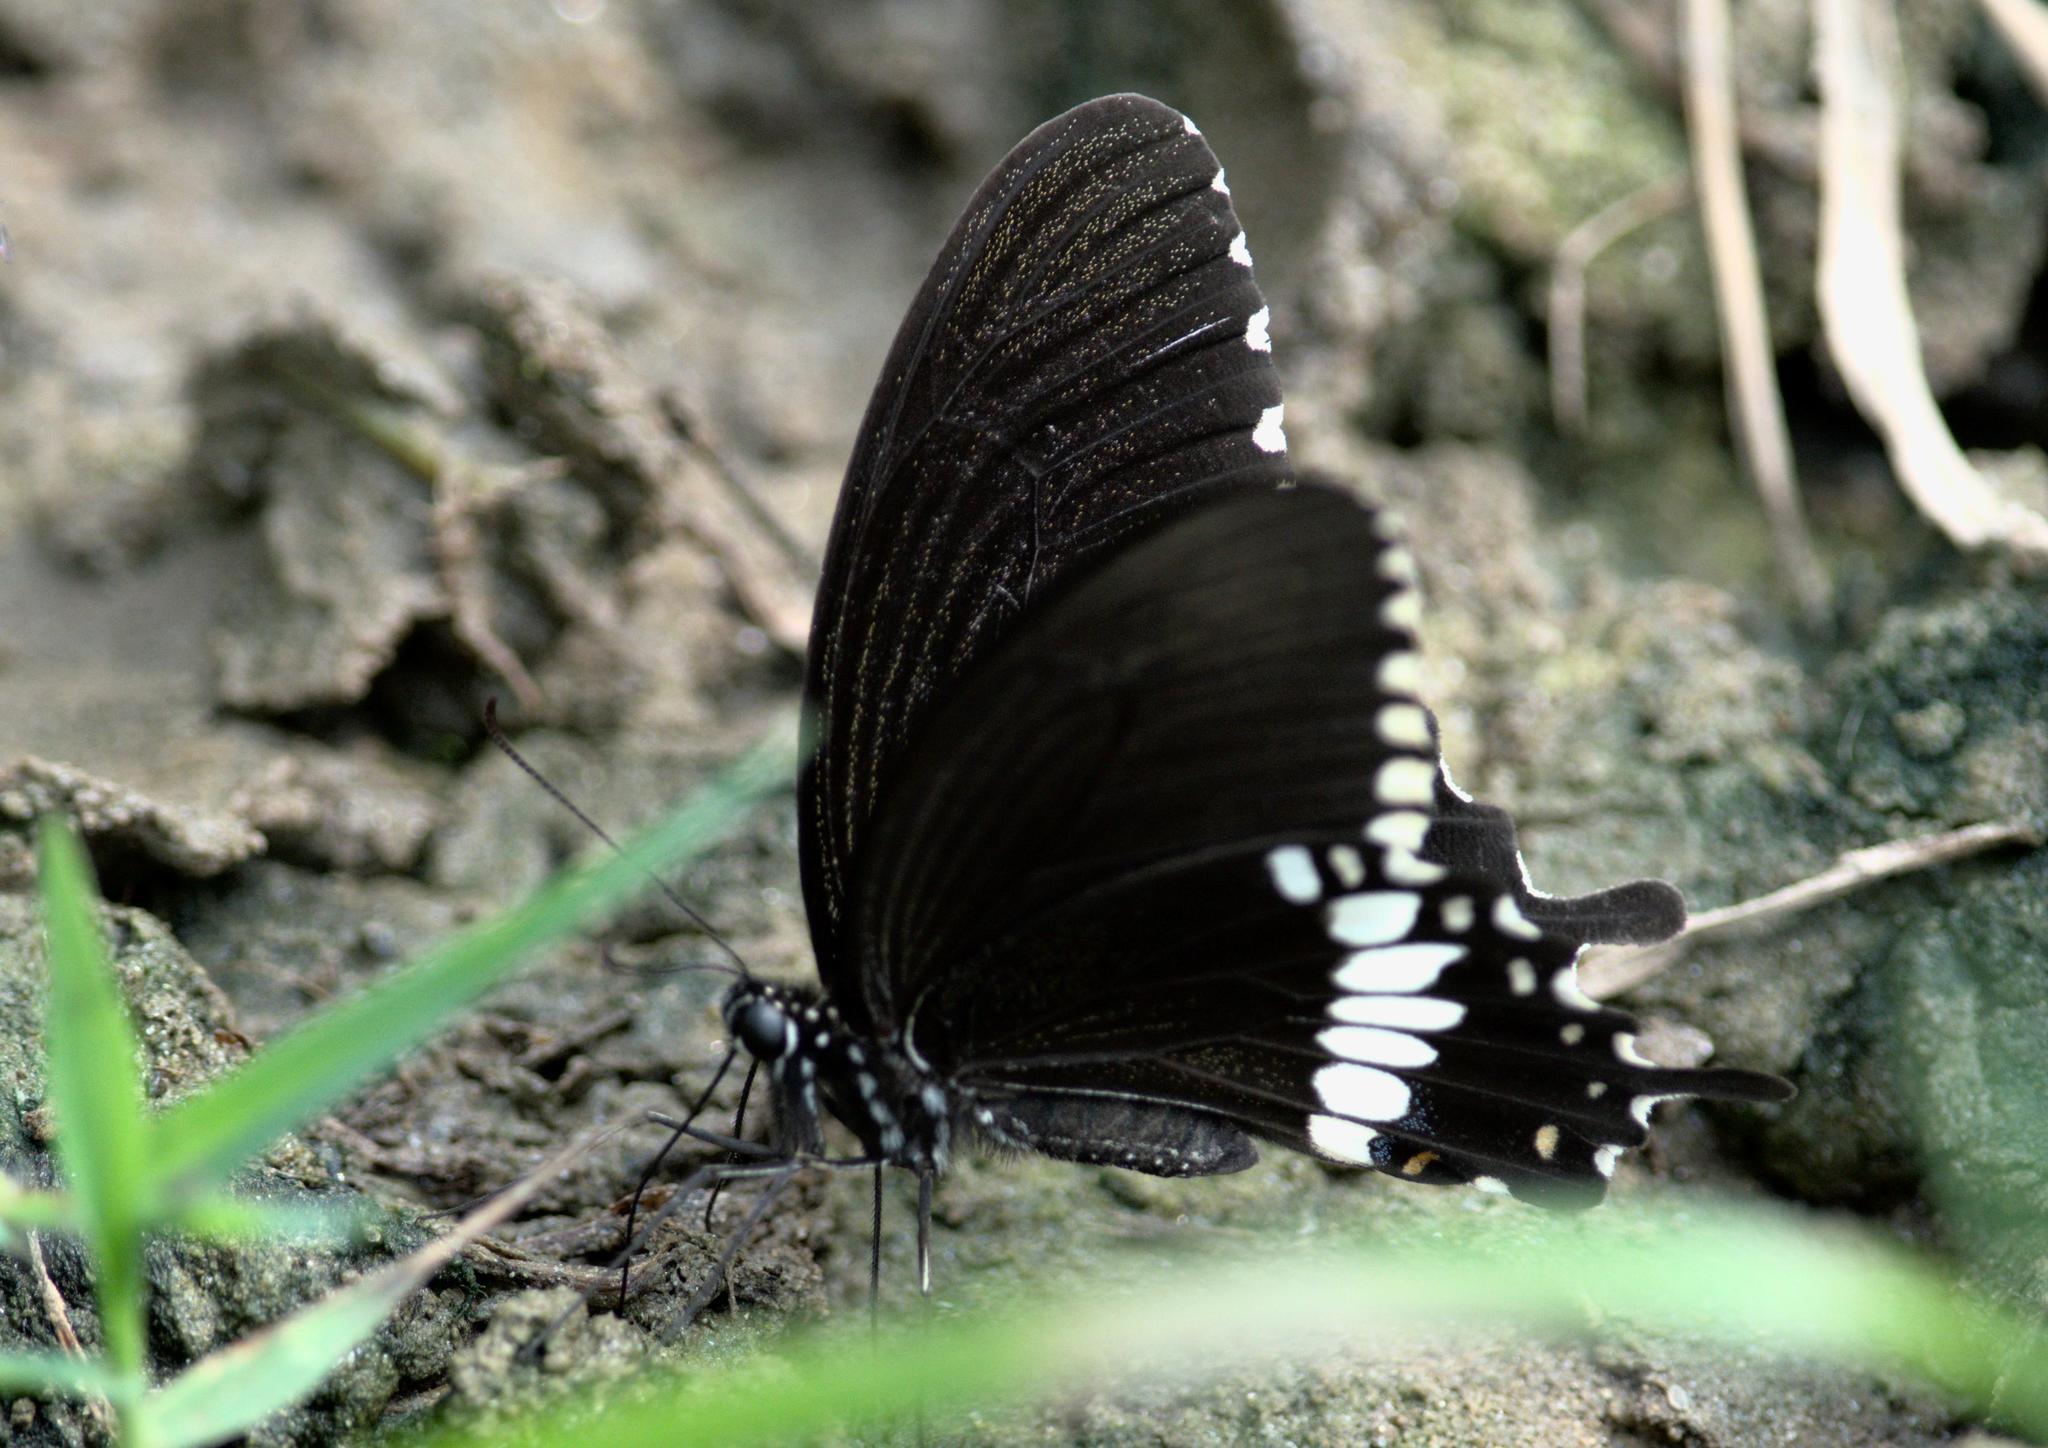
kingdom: Animalia
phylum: Arthropoda
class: Insecta
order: Lepidoptera
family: Papilionidae
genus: Papilio
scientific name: Papilio polytes
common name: Common mormon
